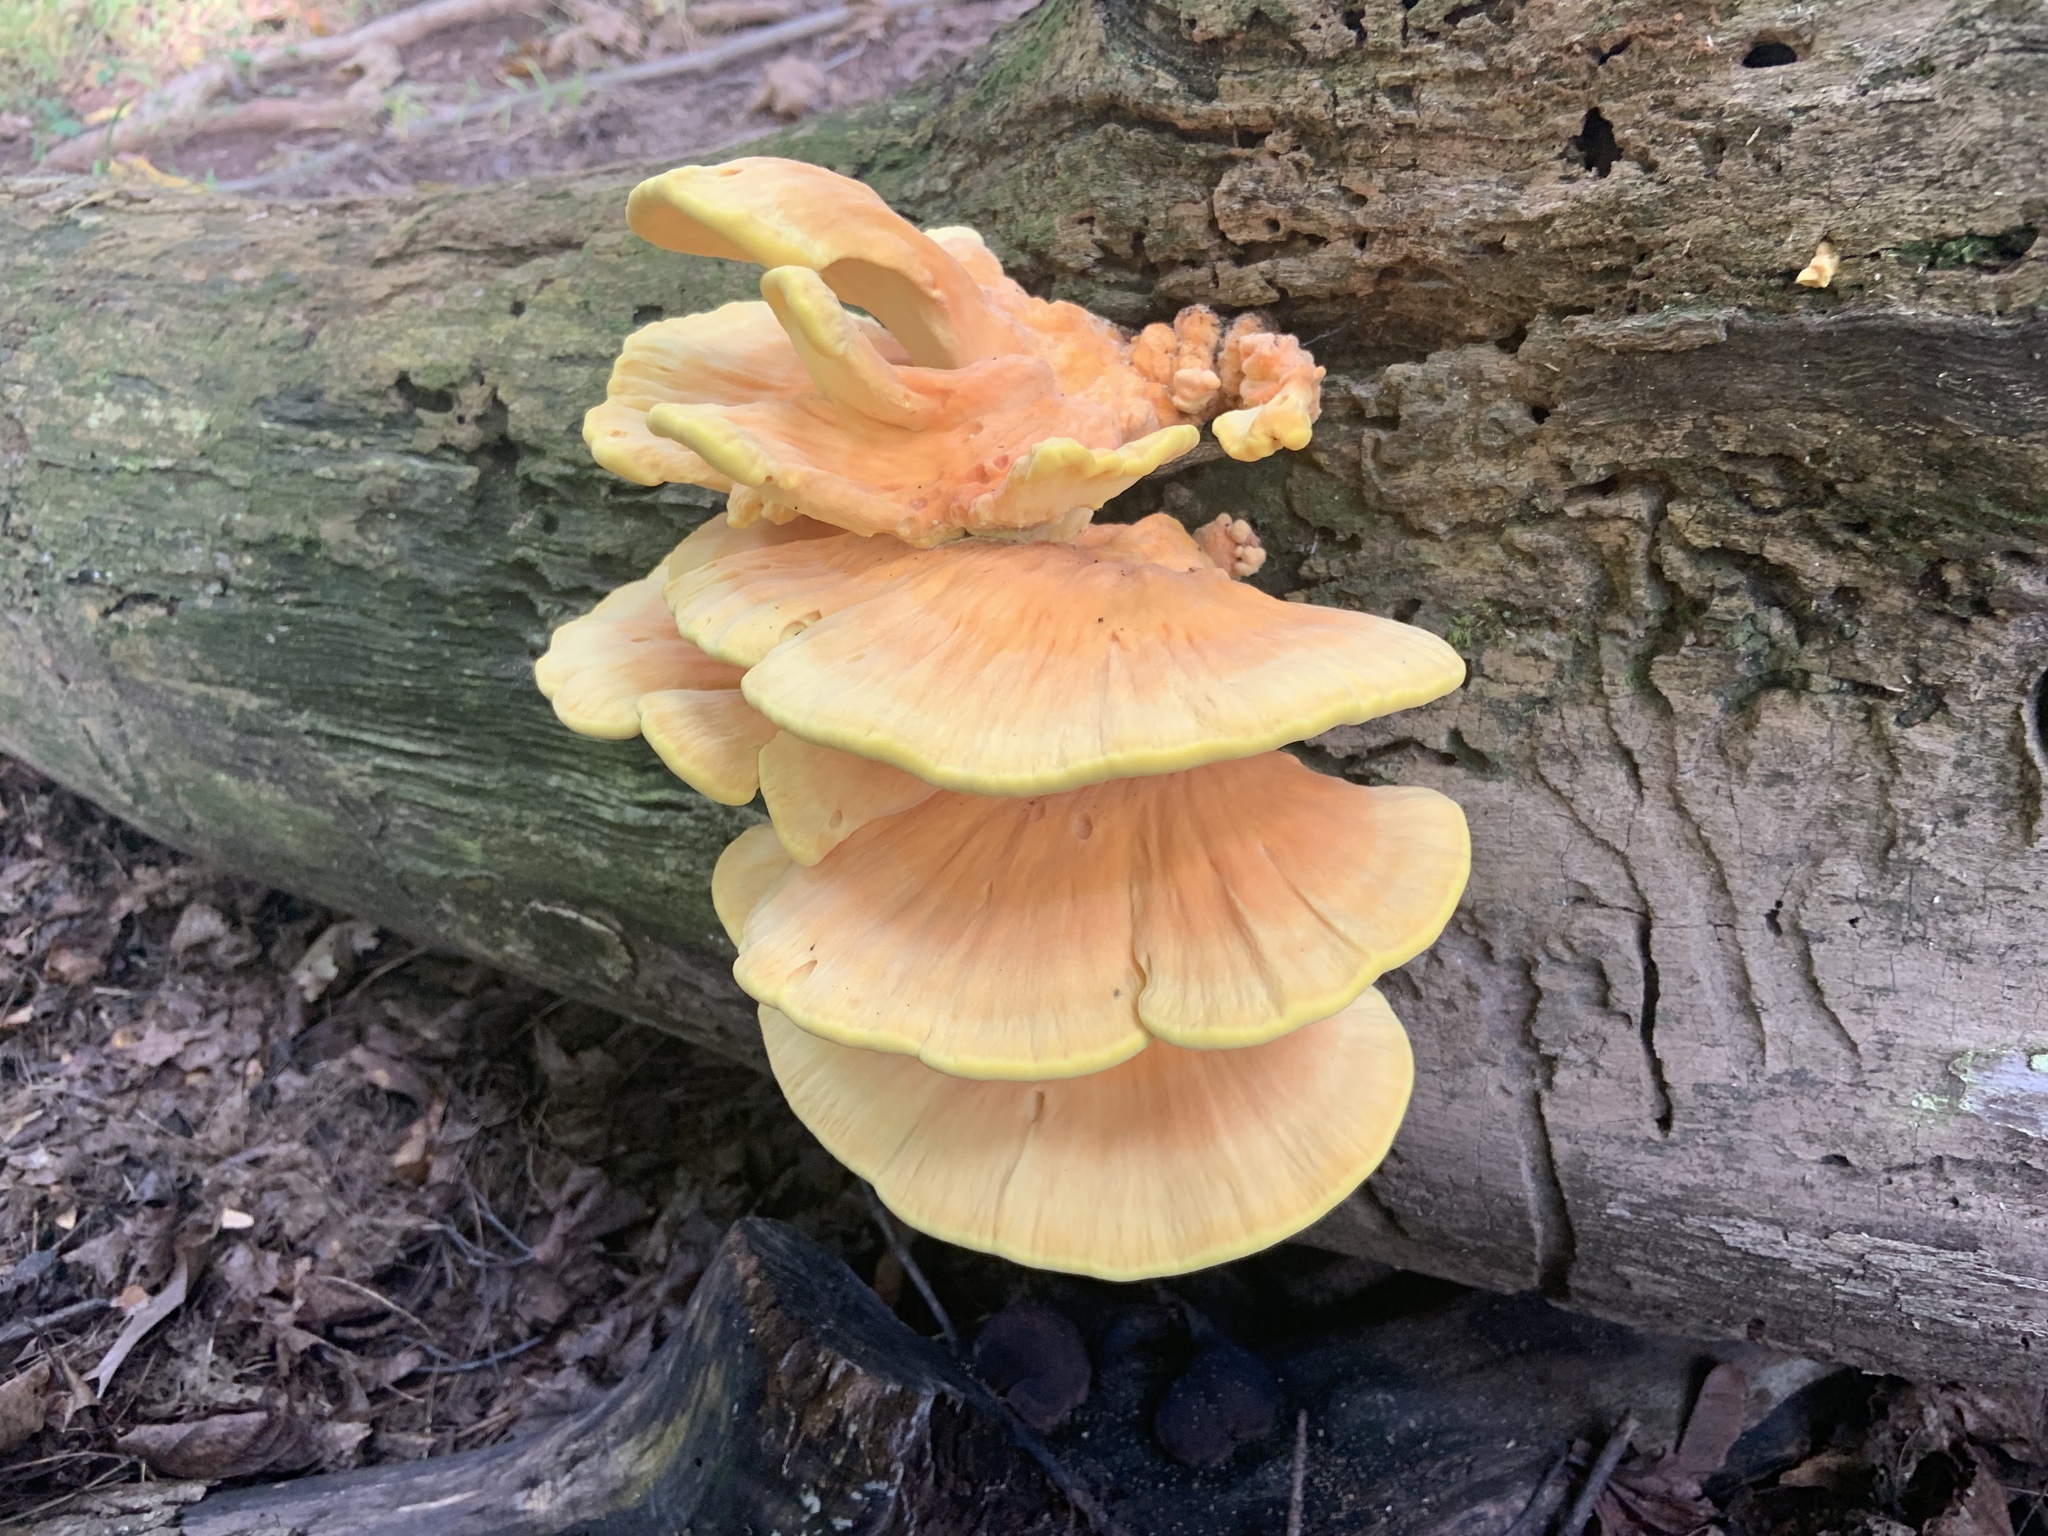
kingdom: Fungi
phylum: Basidiomycota
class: Agaricomycetes
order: Polyporales
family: Laetiporaceae
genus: Laetiporus
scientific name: Laetiporus sulphureus
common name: Chicken of the woods
